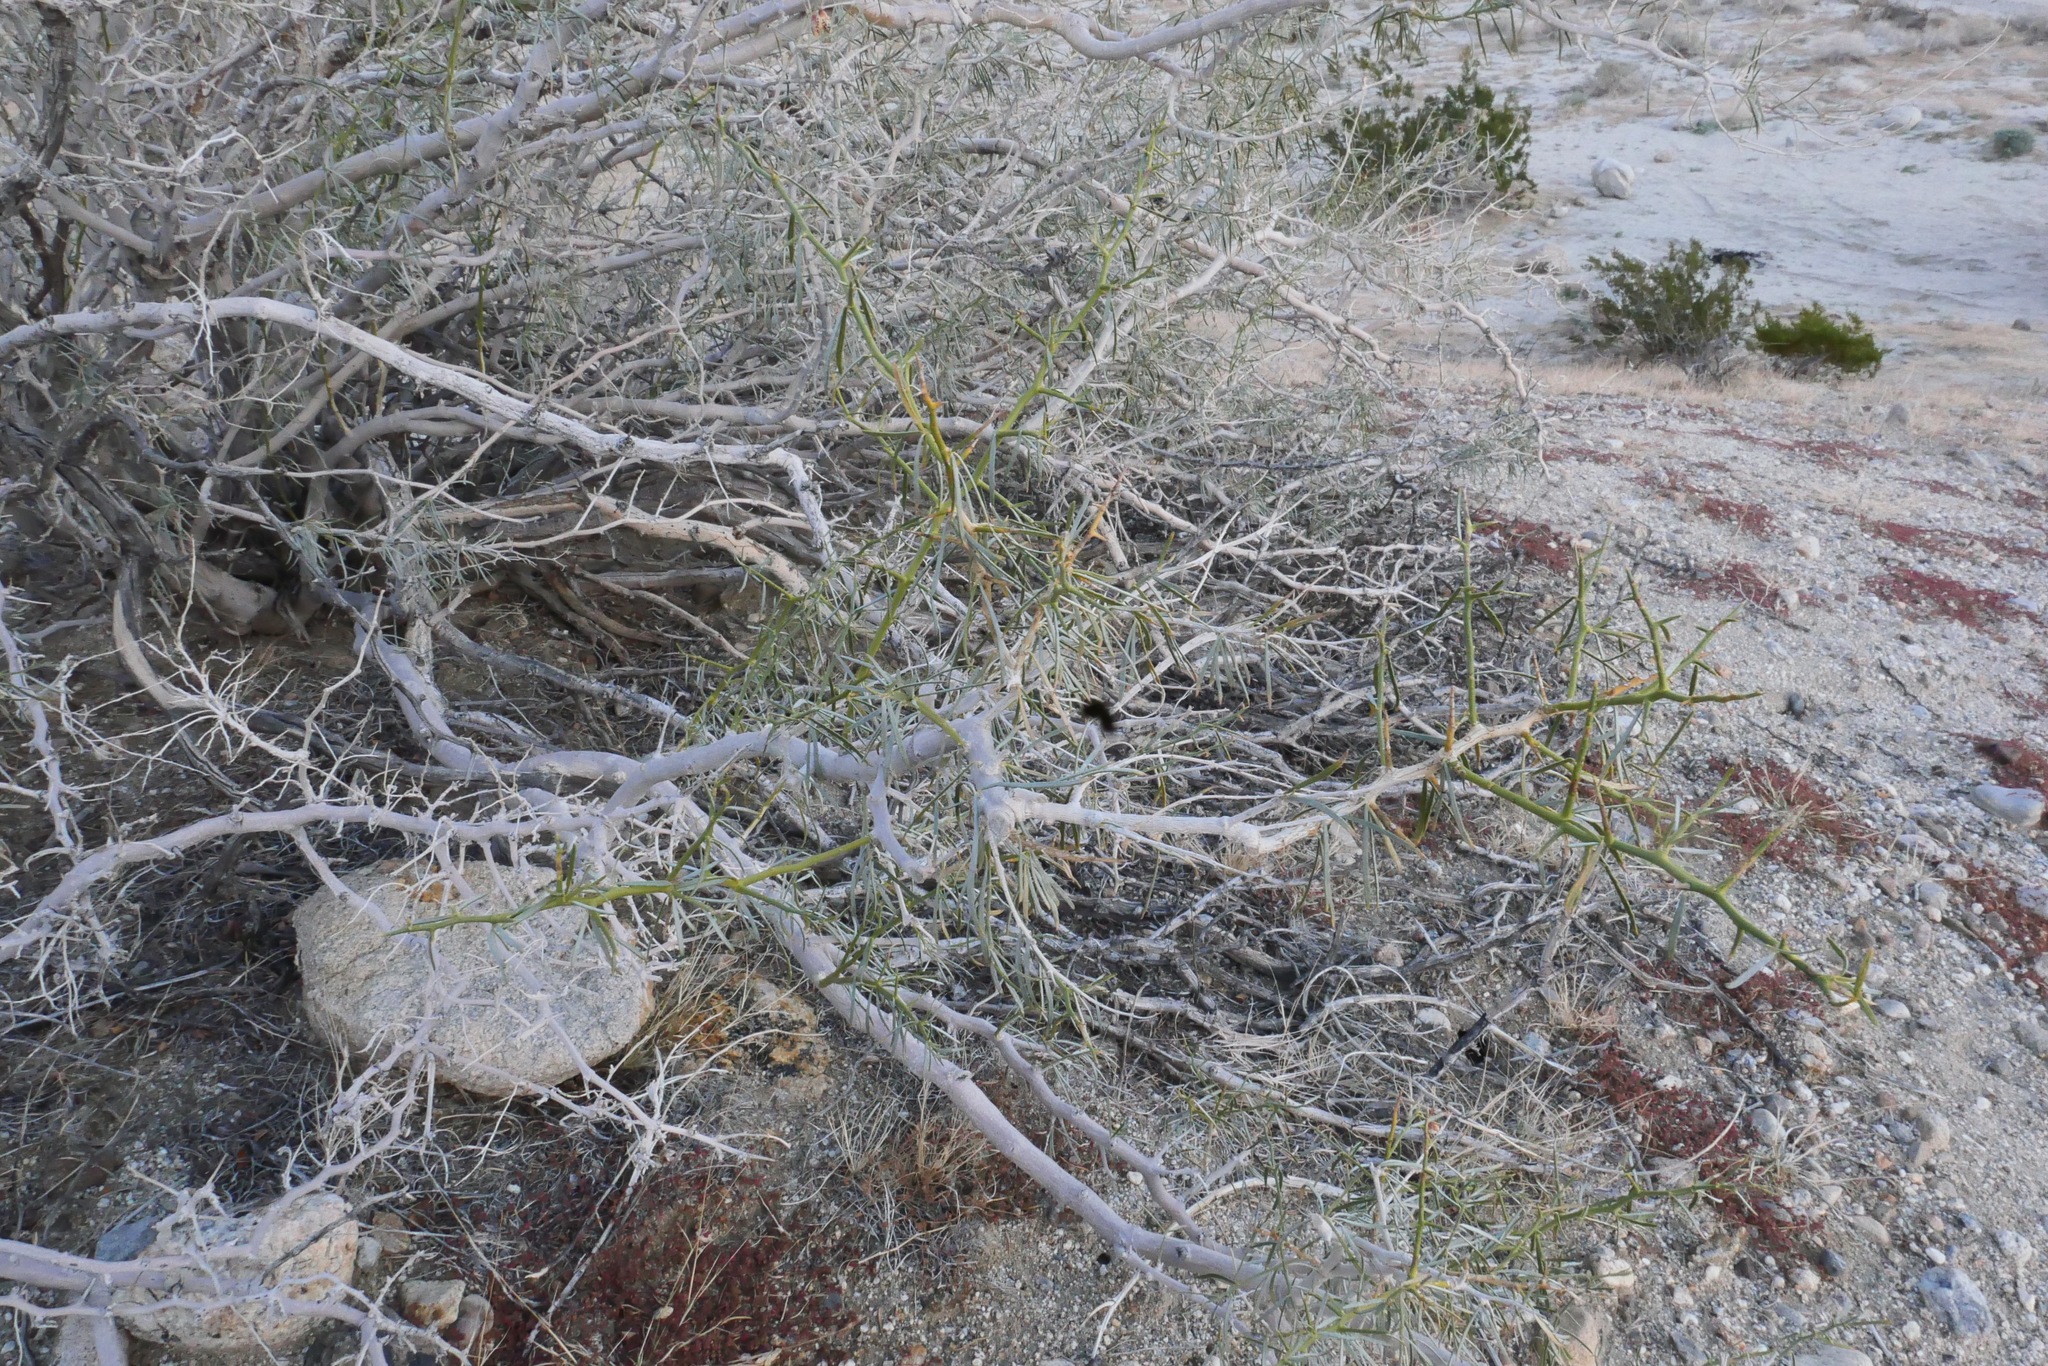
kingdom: Plantae
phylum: Tracheophyta
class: Magnoliopsida
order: Fabales
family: Fabaceae
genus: Psorothamnus
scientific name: Psorothamnus schottii
